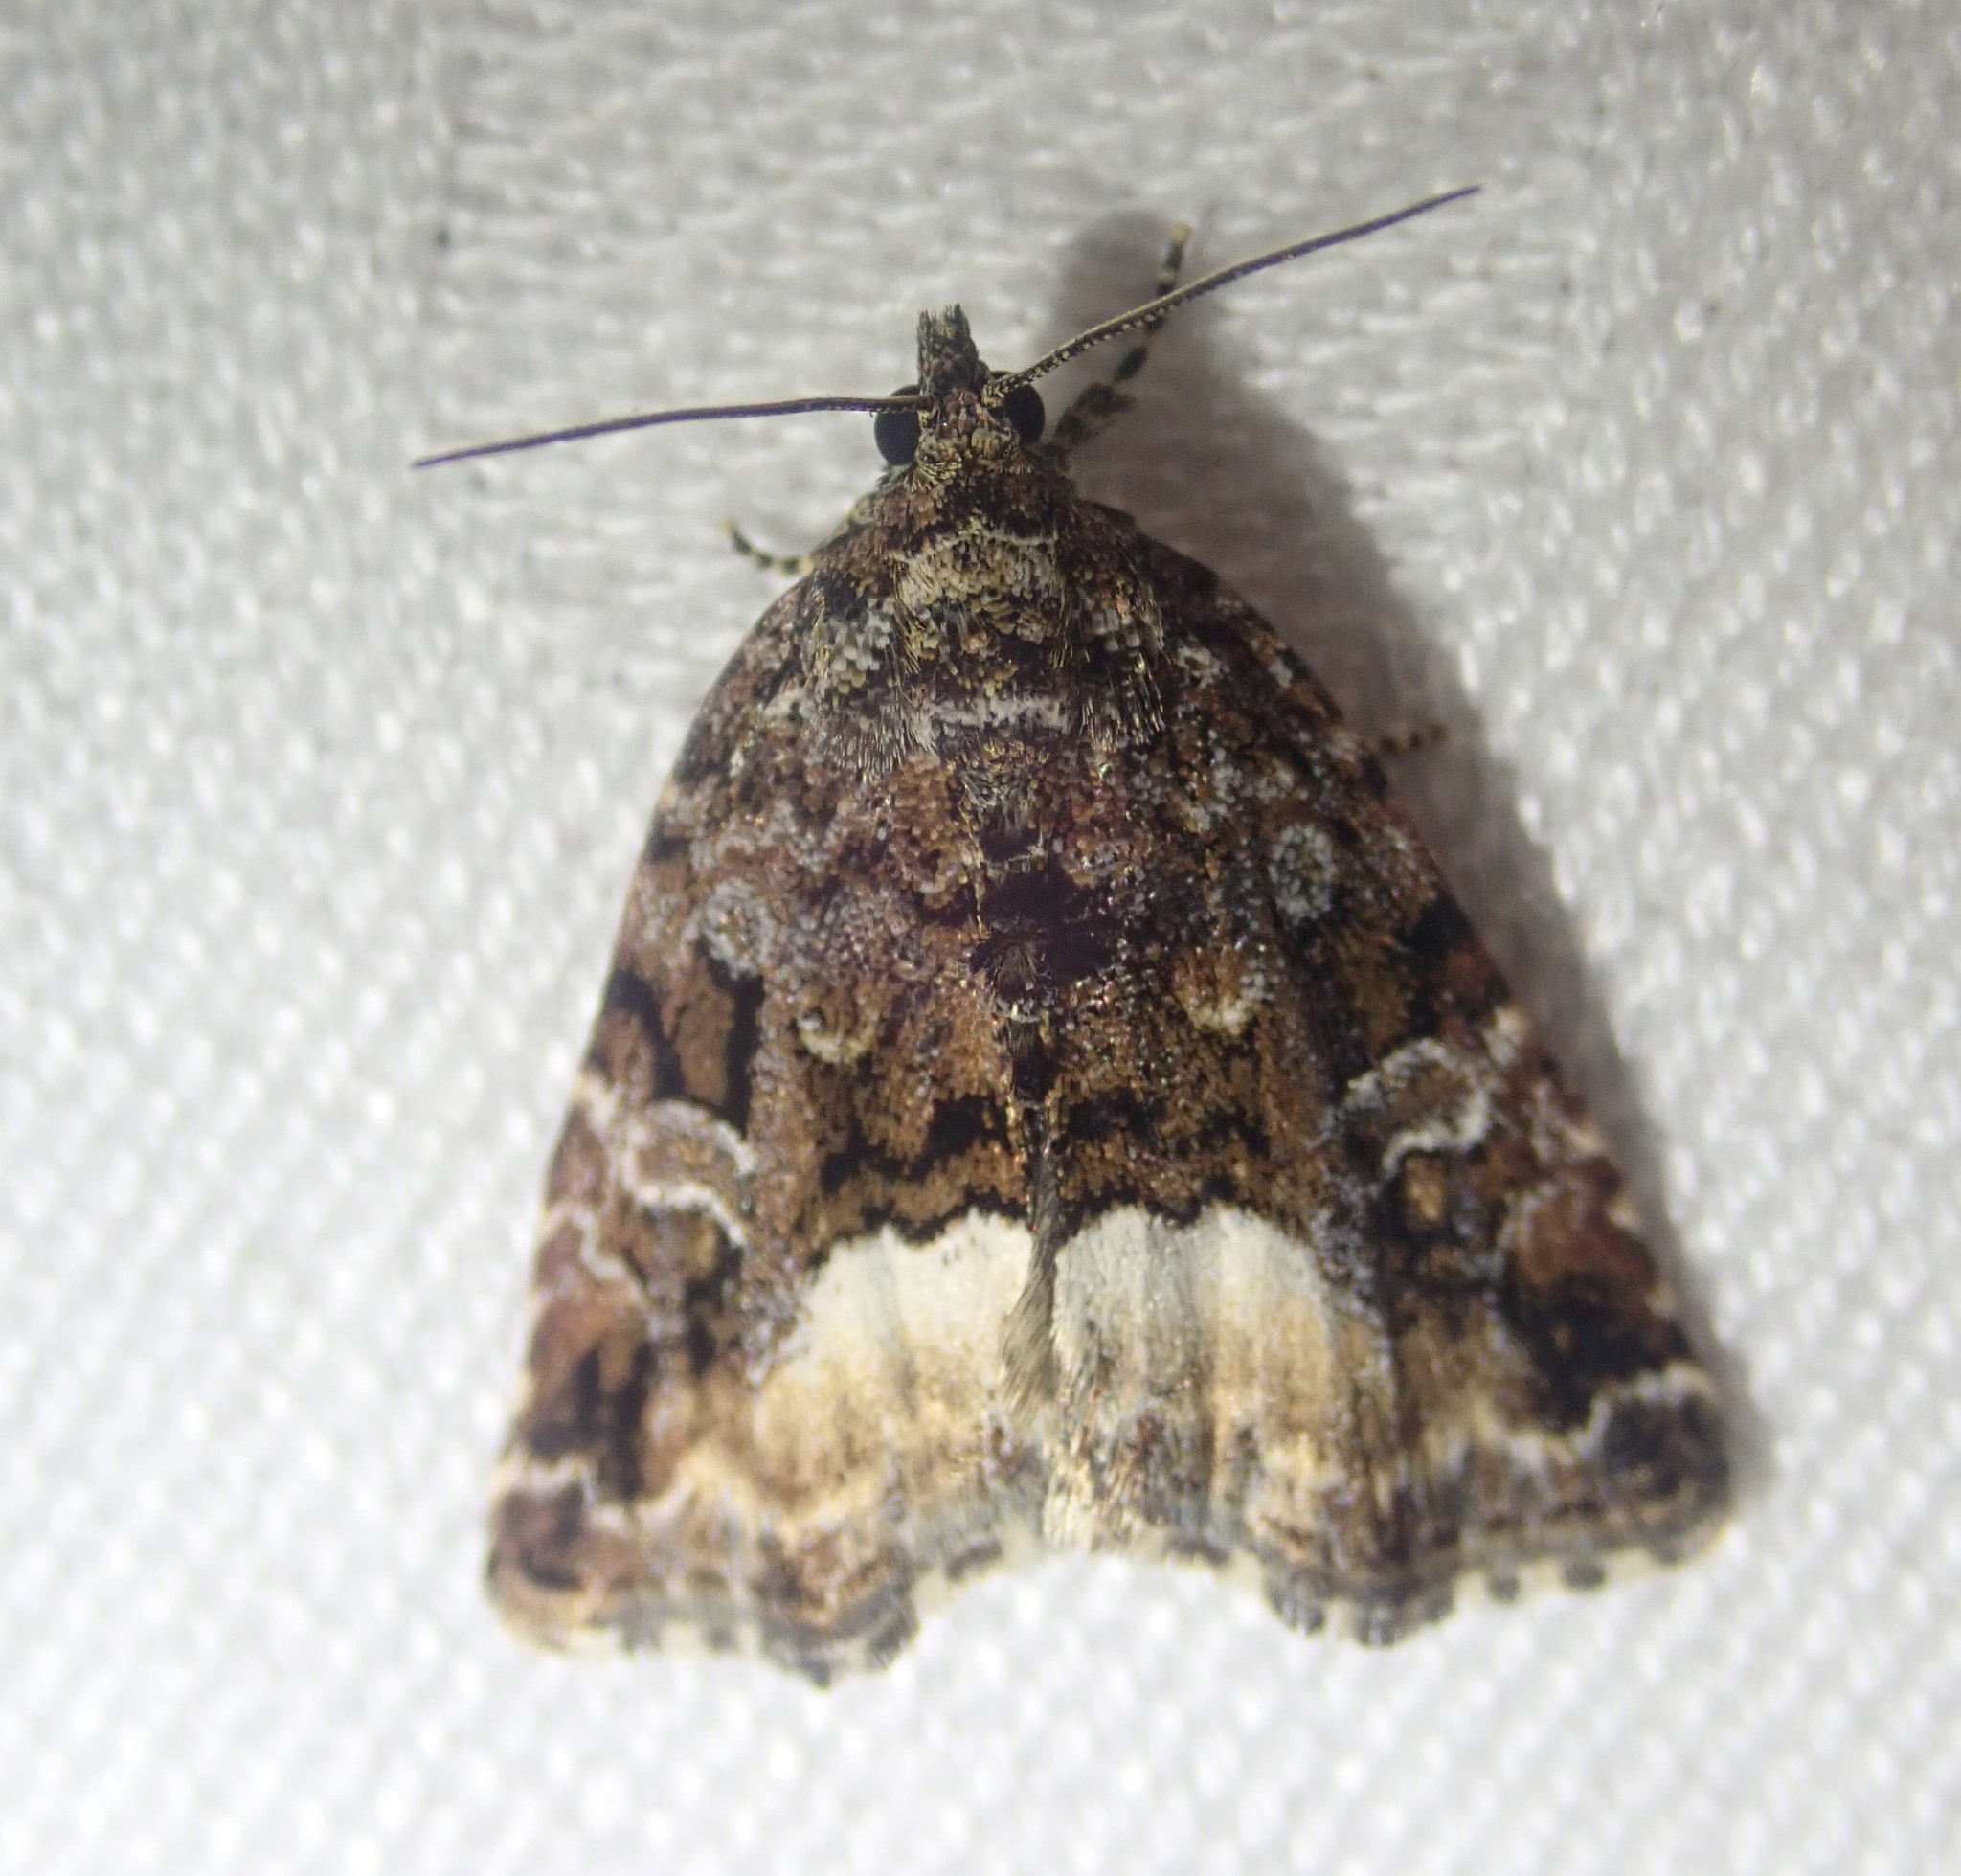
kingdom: Animalia
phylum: Arthropoda
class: Insecta
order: Lepidoptera
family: Noctuidae
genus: Deltote
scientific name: Deltote pygarga
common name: Marbled white spot
